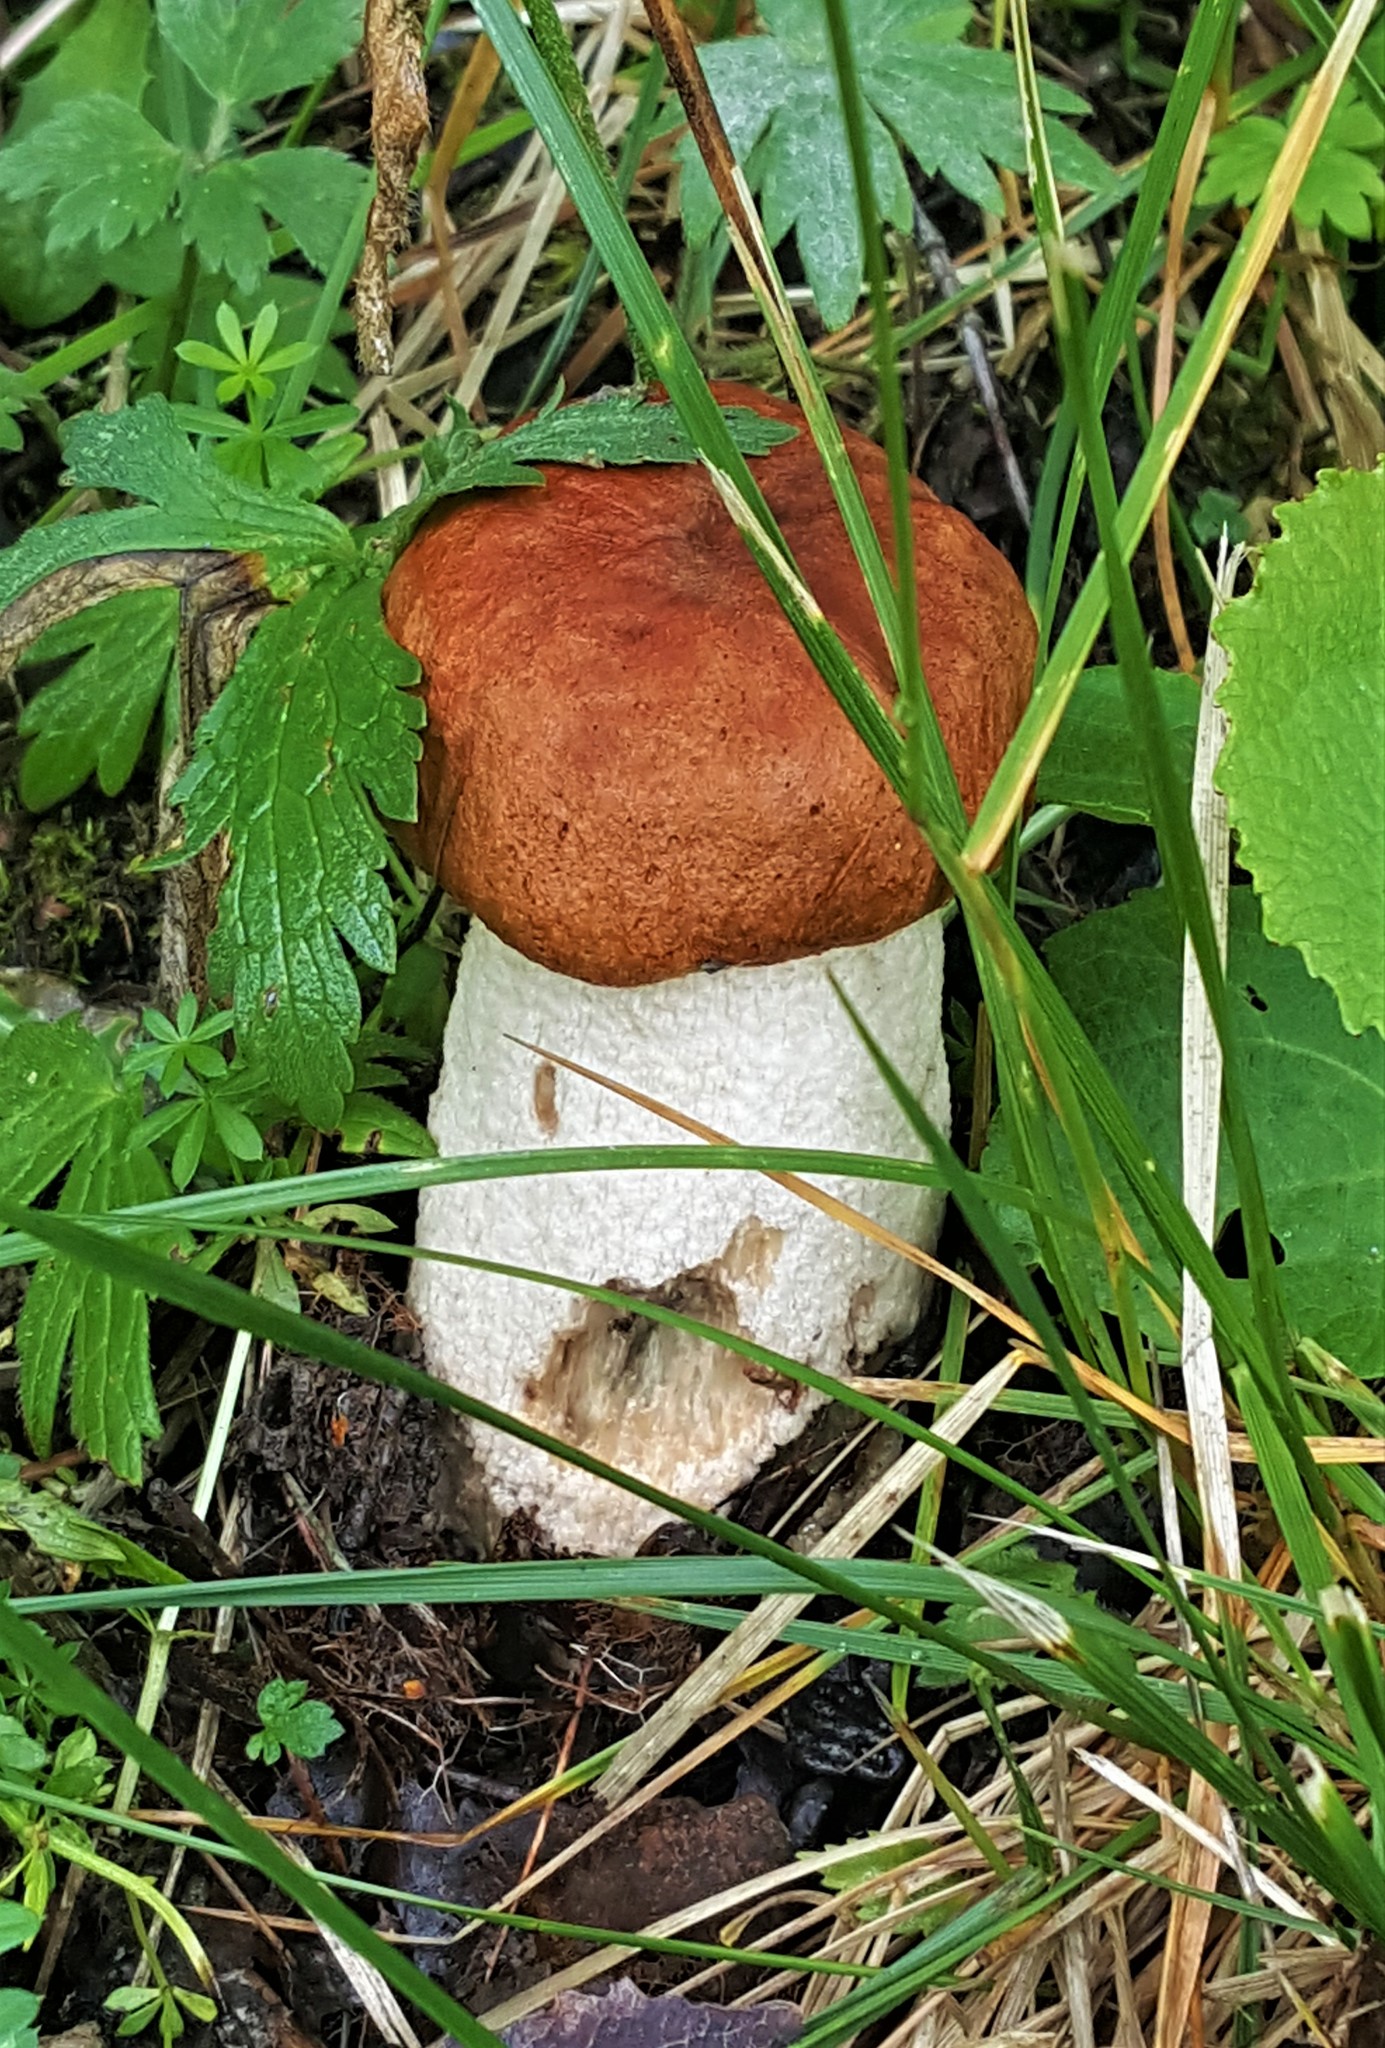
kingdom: Fungi
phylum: Basidiomycota
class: Agaricomycetes
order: Boletales
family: Boletaceae
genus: Leccinum
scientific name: Leccinum aurantiacum
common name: Orange bolete
